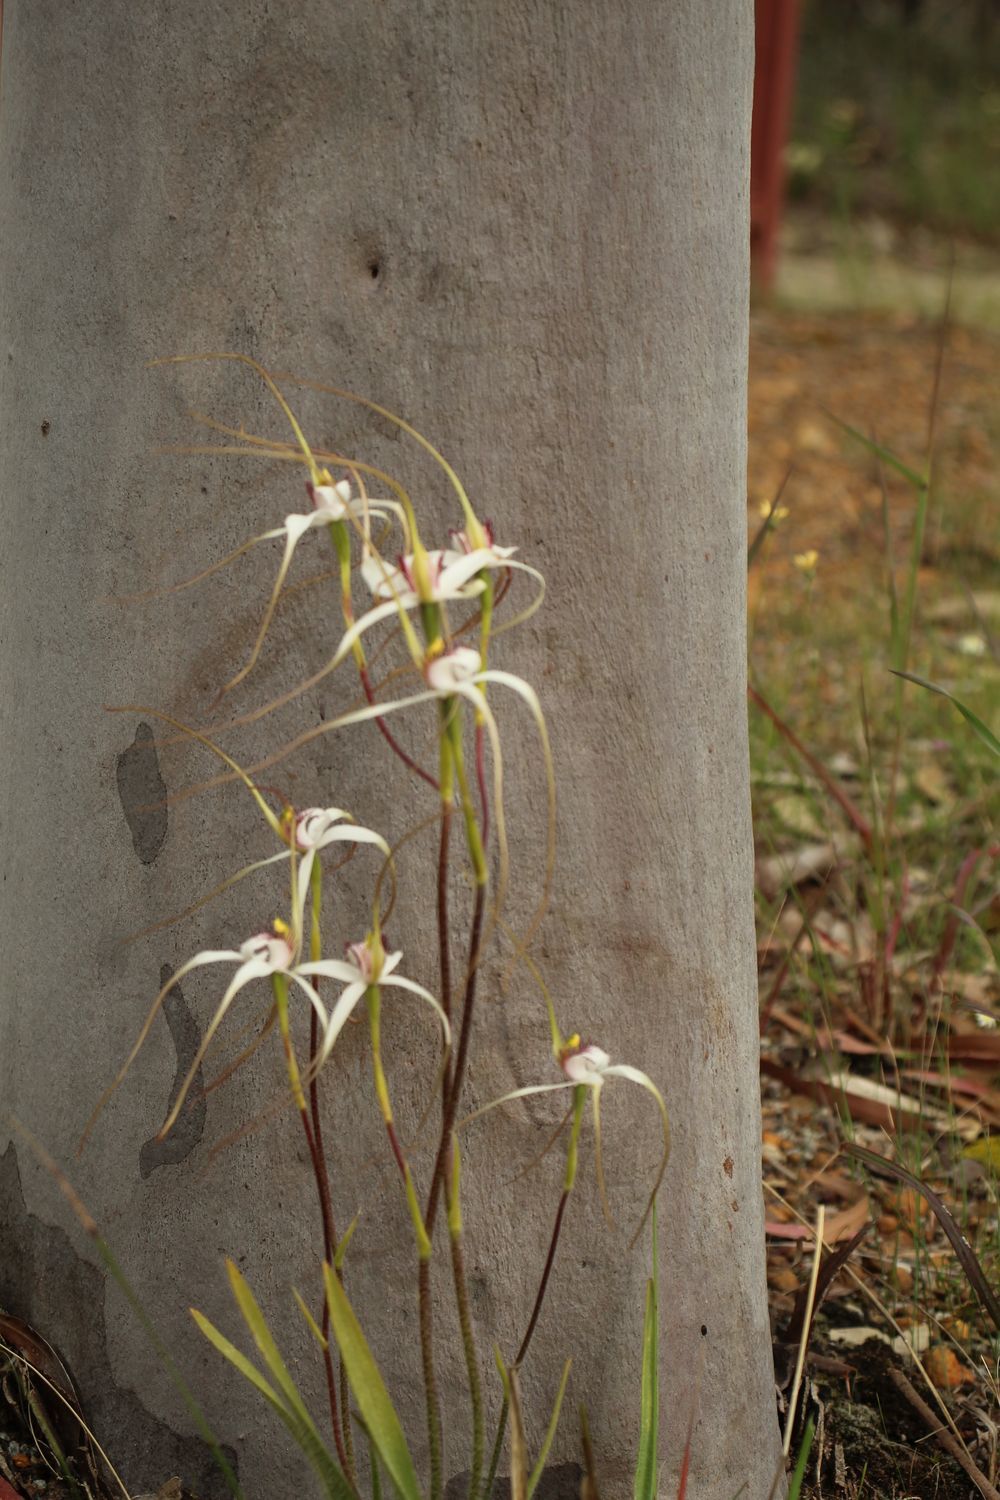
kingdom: Plantae
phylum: Tracheophyta
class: Liliopsida
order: Asparagales
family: Orchidaceae
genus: Caladenia
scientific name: Caladenia longicauda
